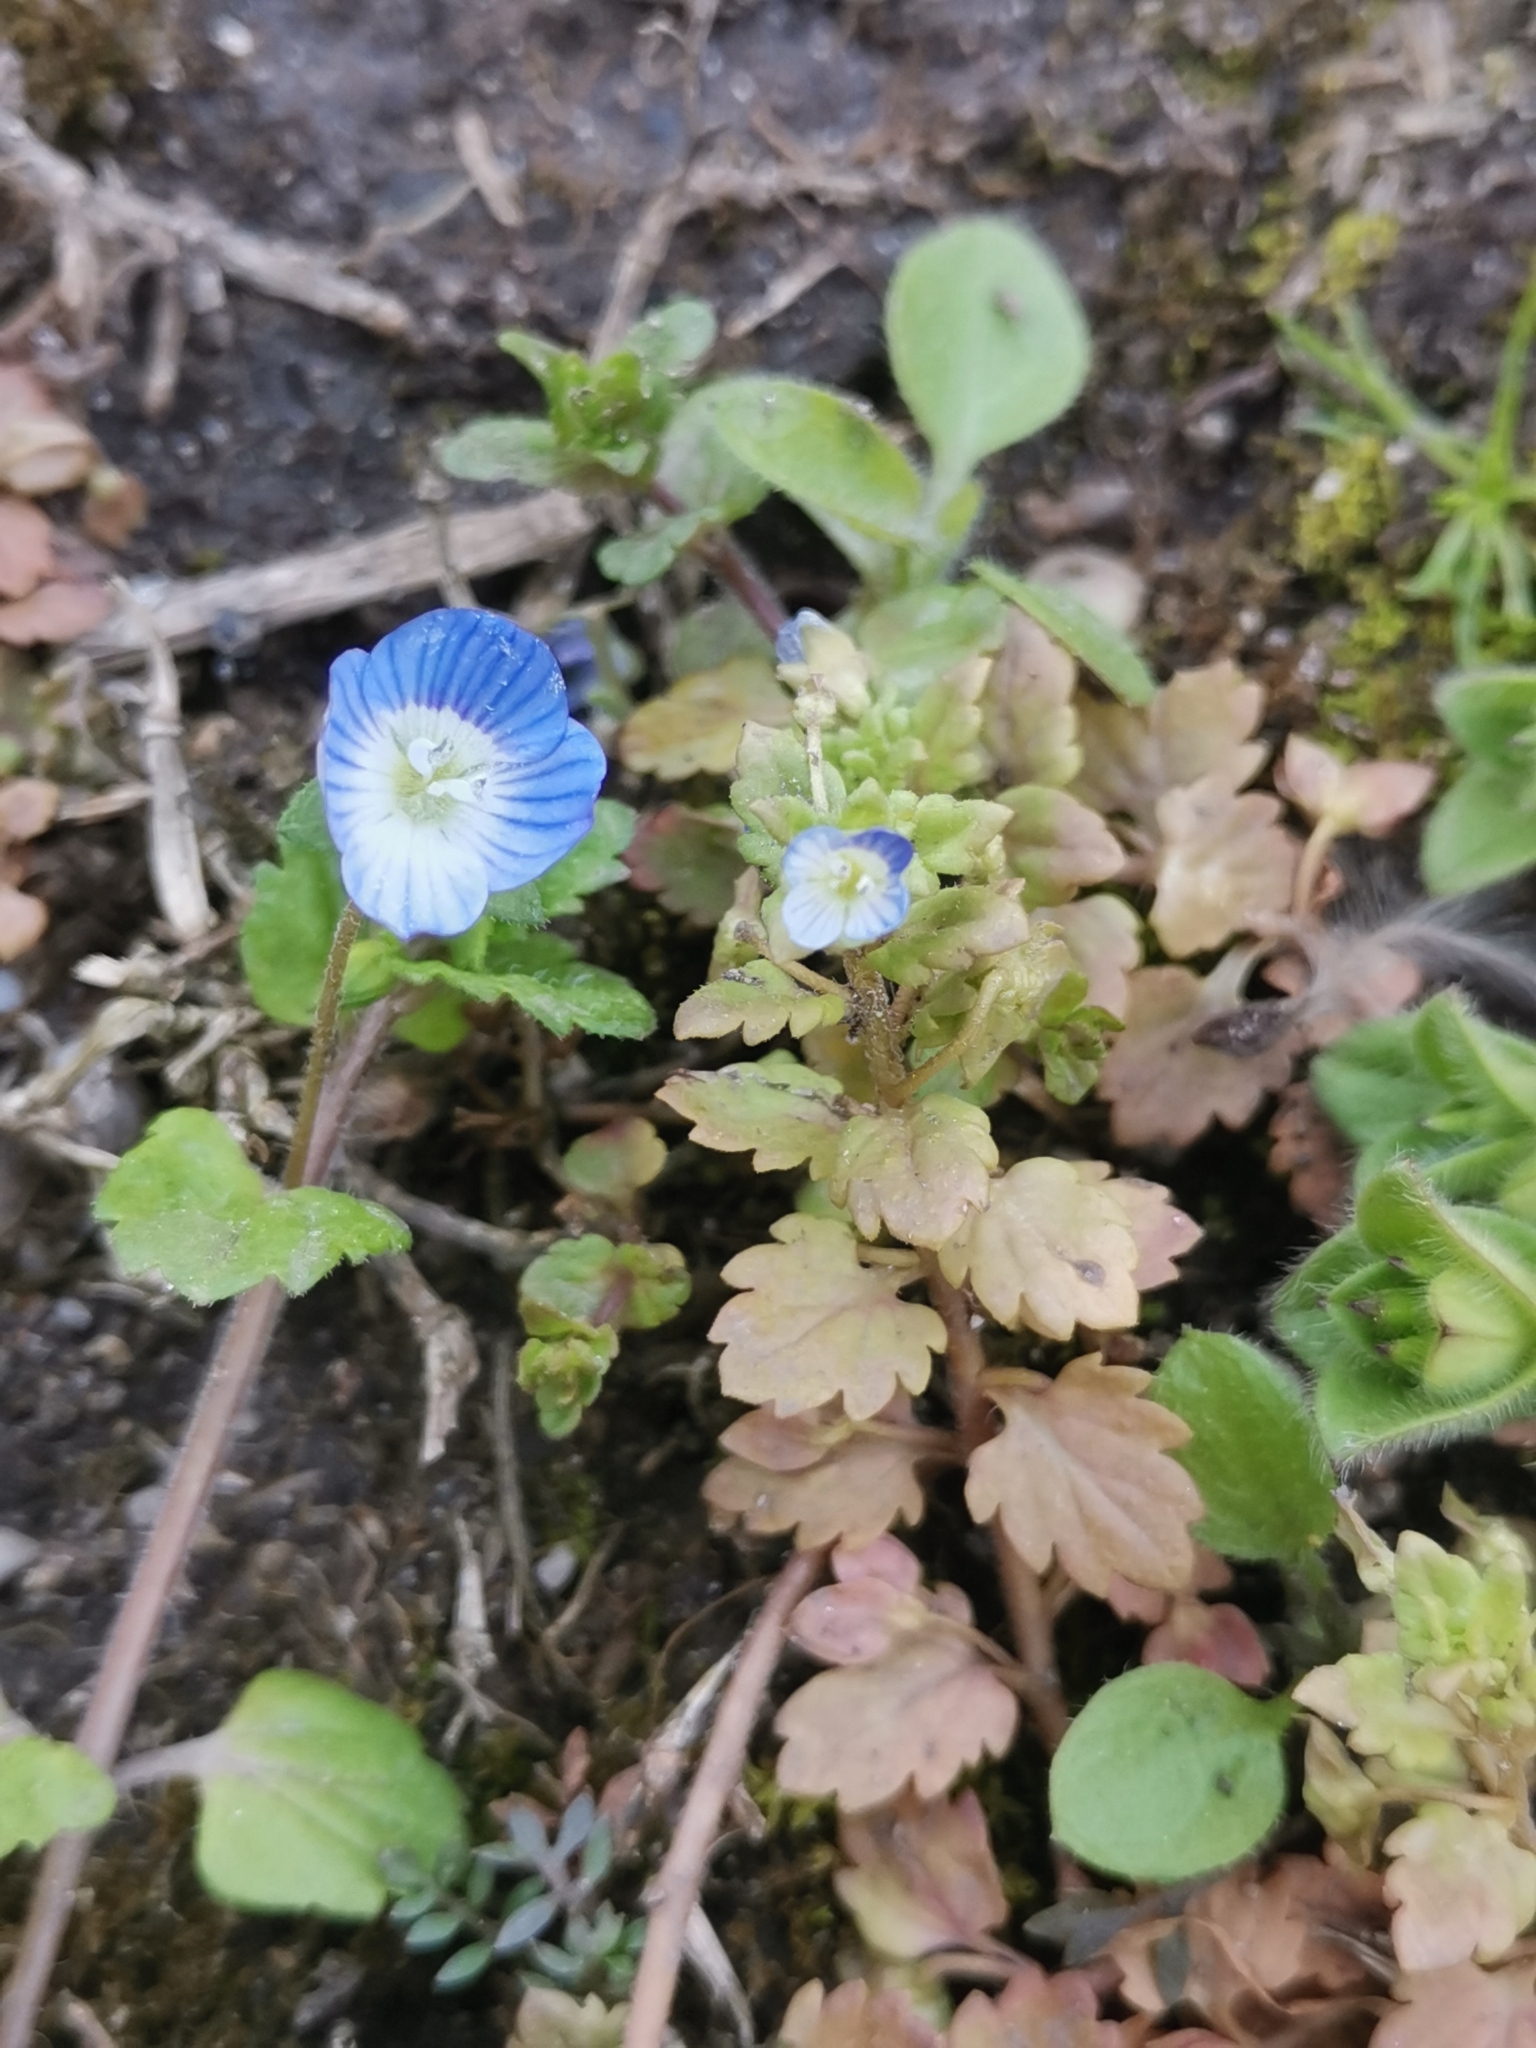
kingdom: Plantae
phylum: Tracheophyta
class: Magnoliopsida
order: Lamiales
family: Plantaginaceae
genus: Veronica
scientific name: Veronica polita
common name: Grey field-speedwell
